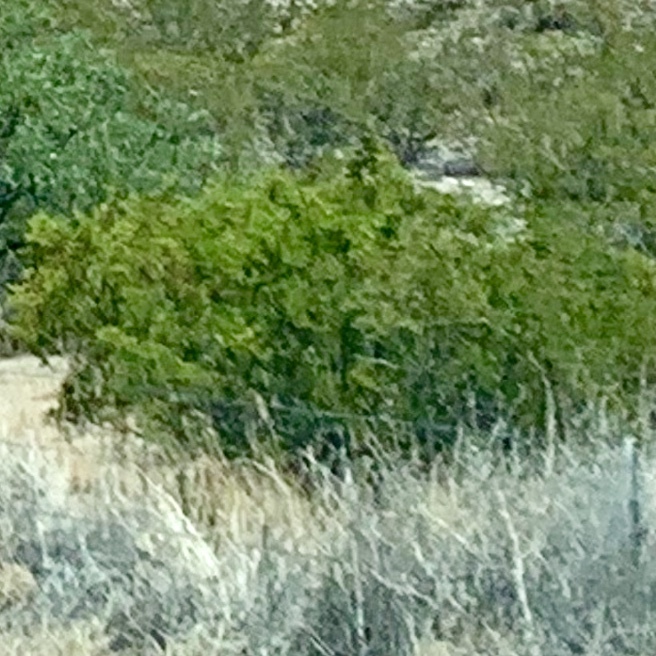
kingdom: Plantae
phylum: Tracheophyta
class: Magnoliopsida
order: Zygophyllales
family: Zygophyllaceae
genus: Larrea
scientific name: Larrea tridentata
